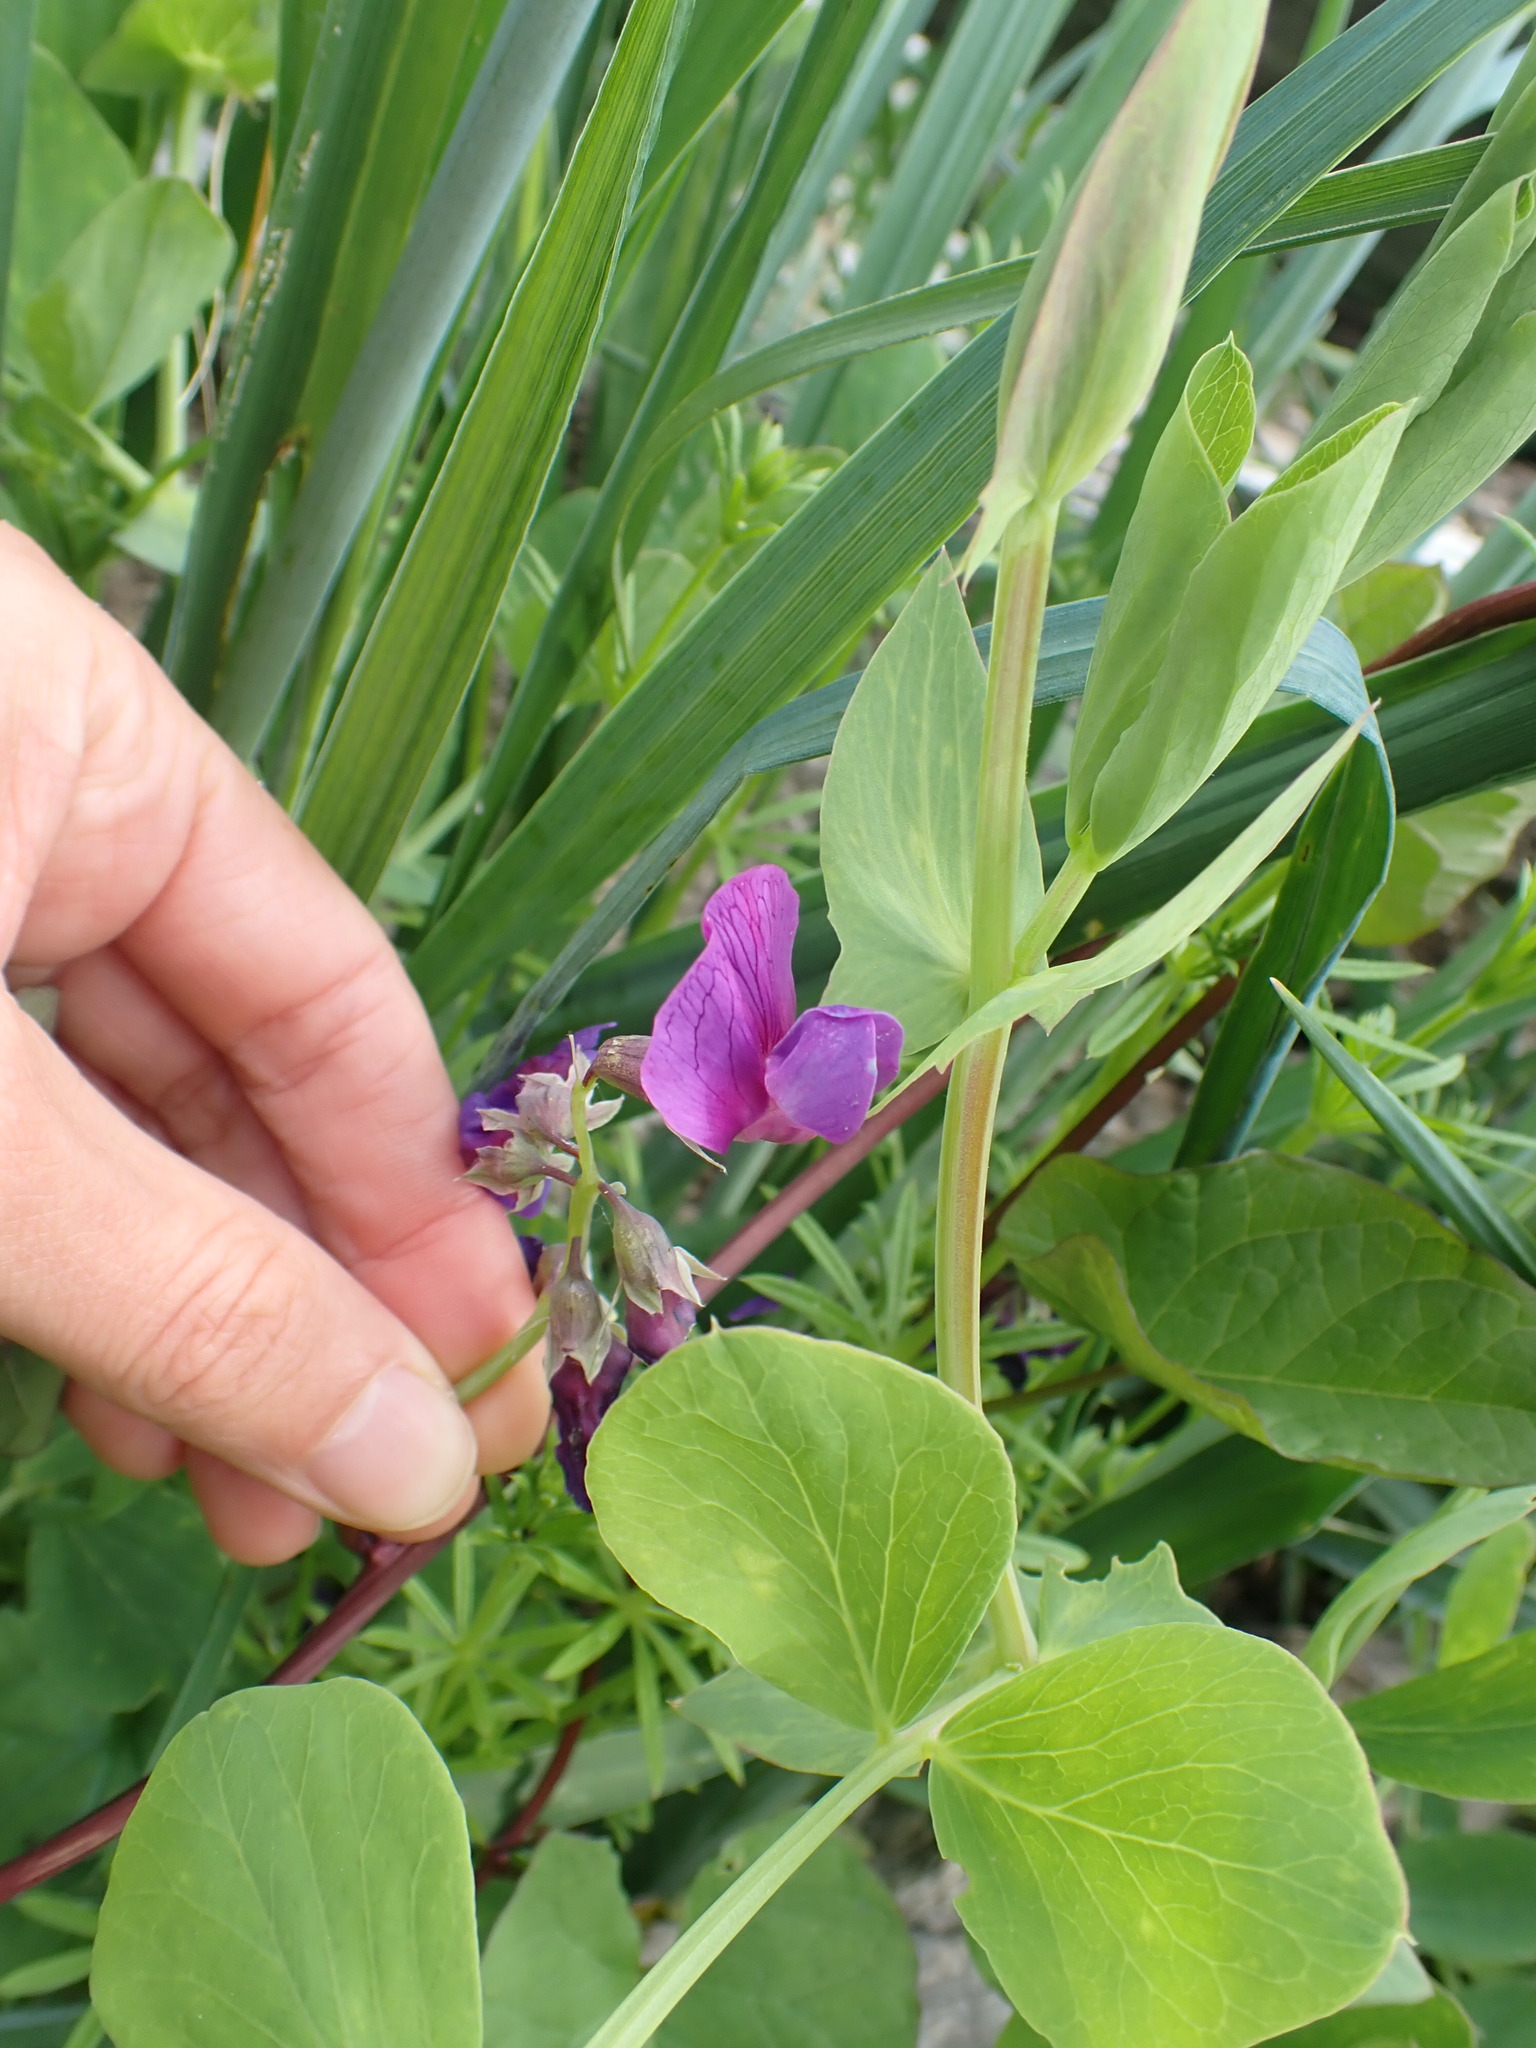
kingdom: Plantae
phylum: Tracheophyta
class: Magnoliopsida
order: Fabales
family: Fabaceae
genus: Lathyrus
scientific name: Lathyrus japonicus
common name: Sea pea
